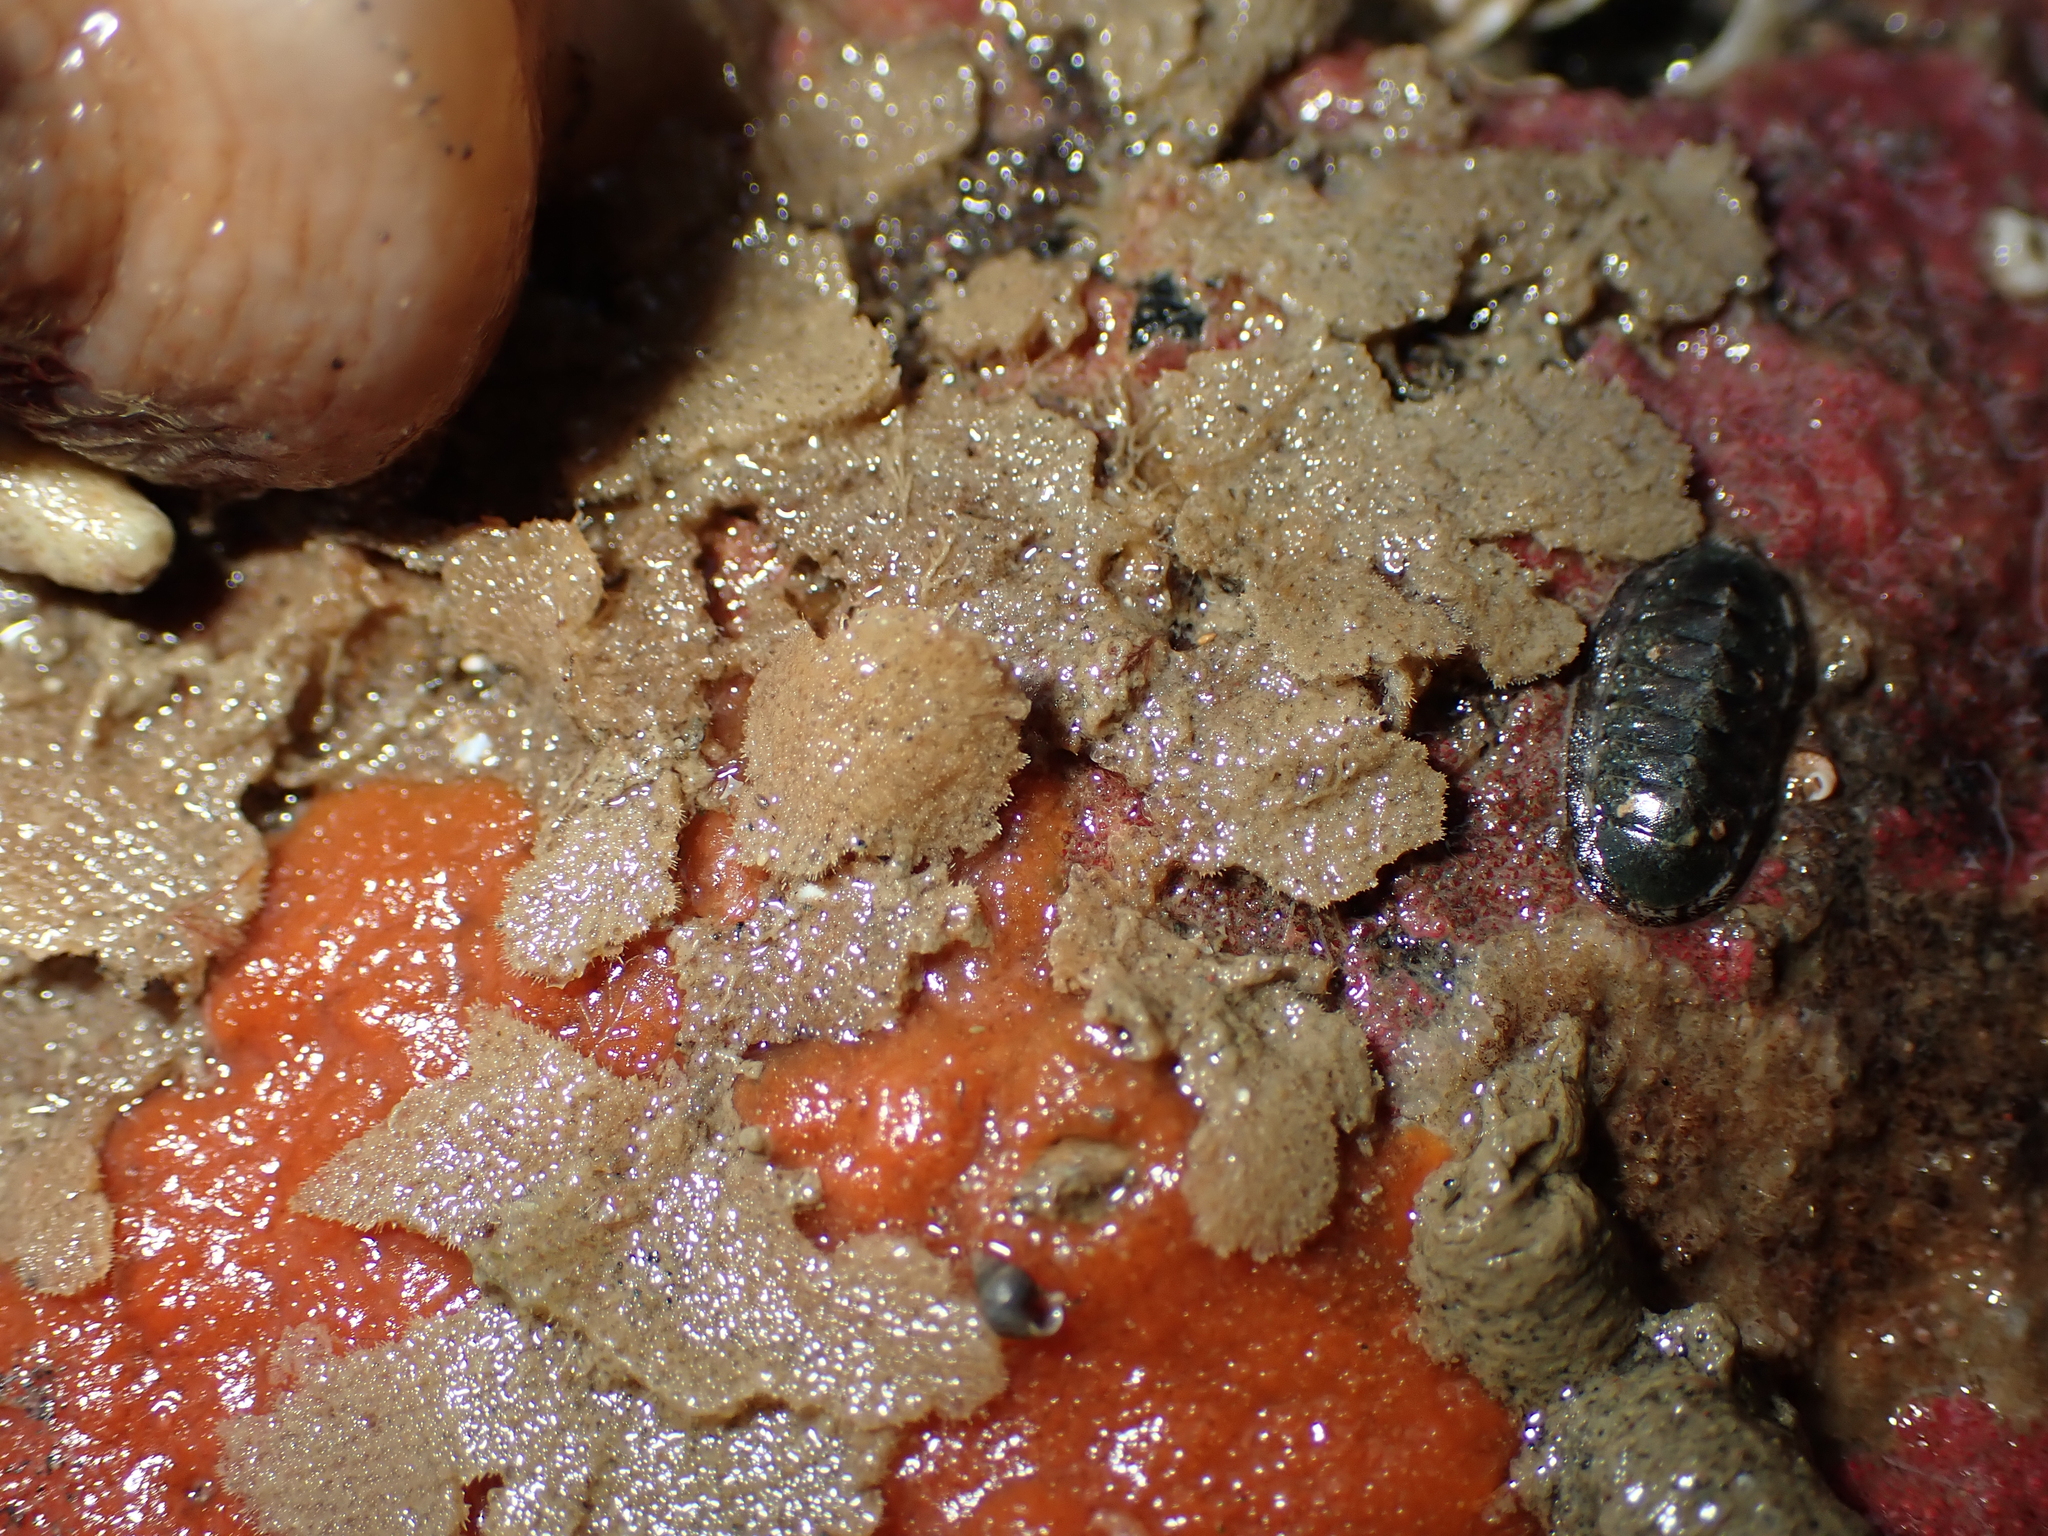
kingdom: Animalia
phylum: Bryozoa
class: Gymnolaemata
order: Cheilostomatida
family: Beaniidae
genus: Beania
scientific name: Beania magellanica
